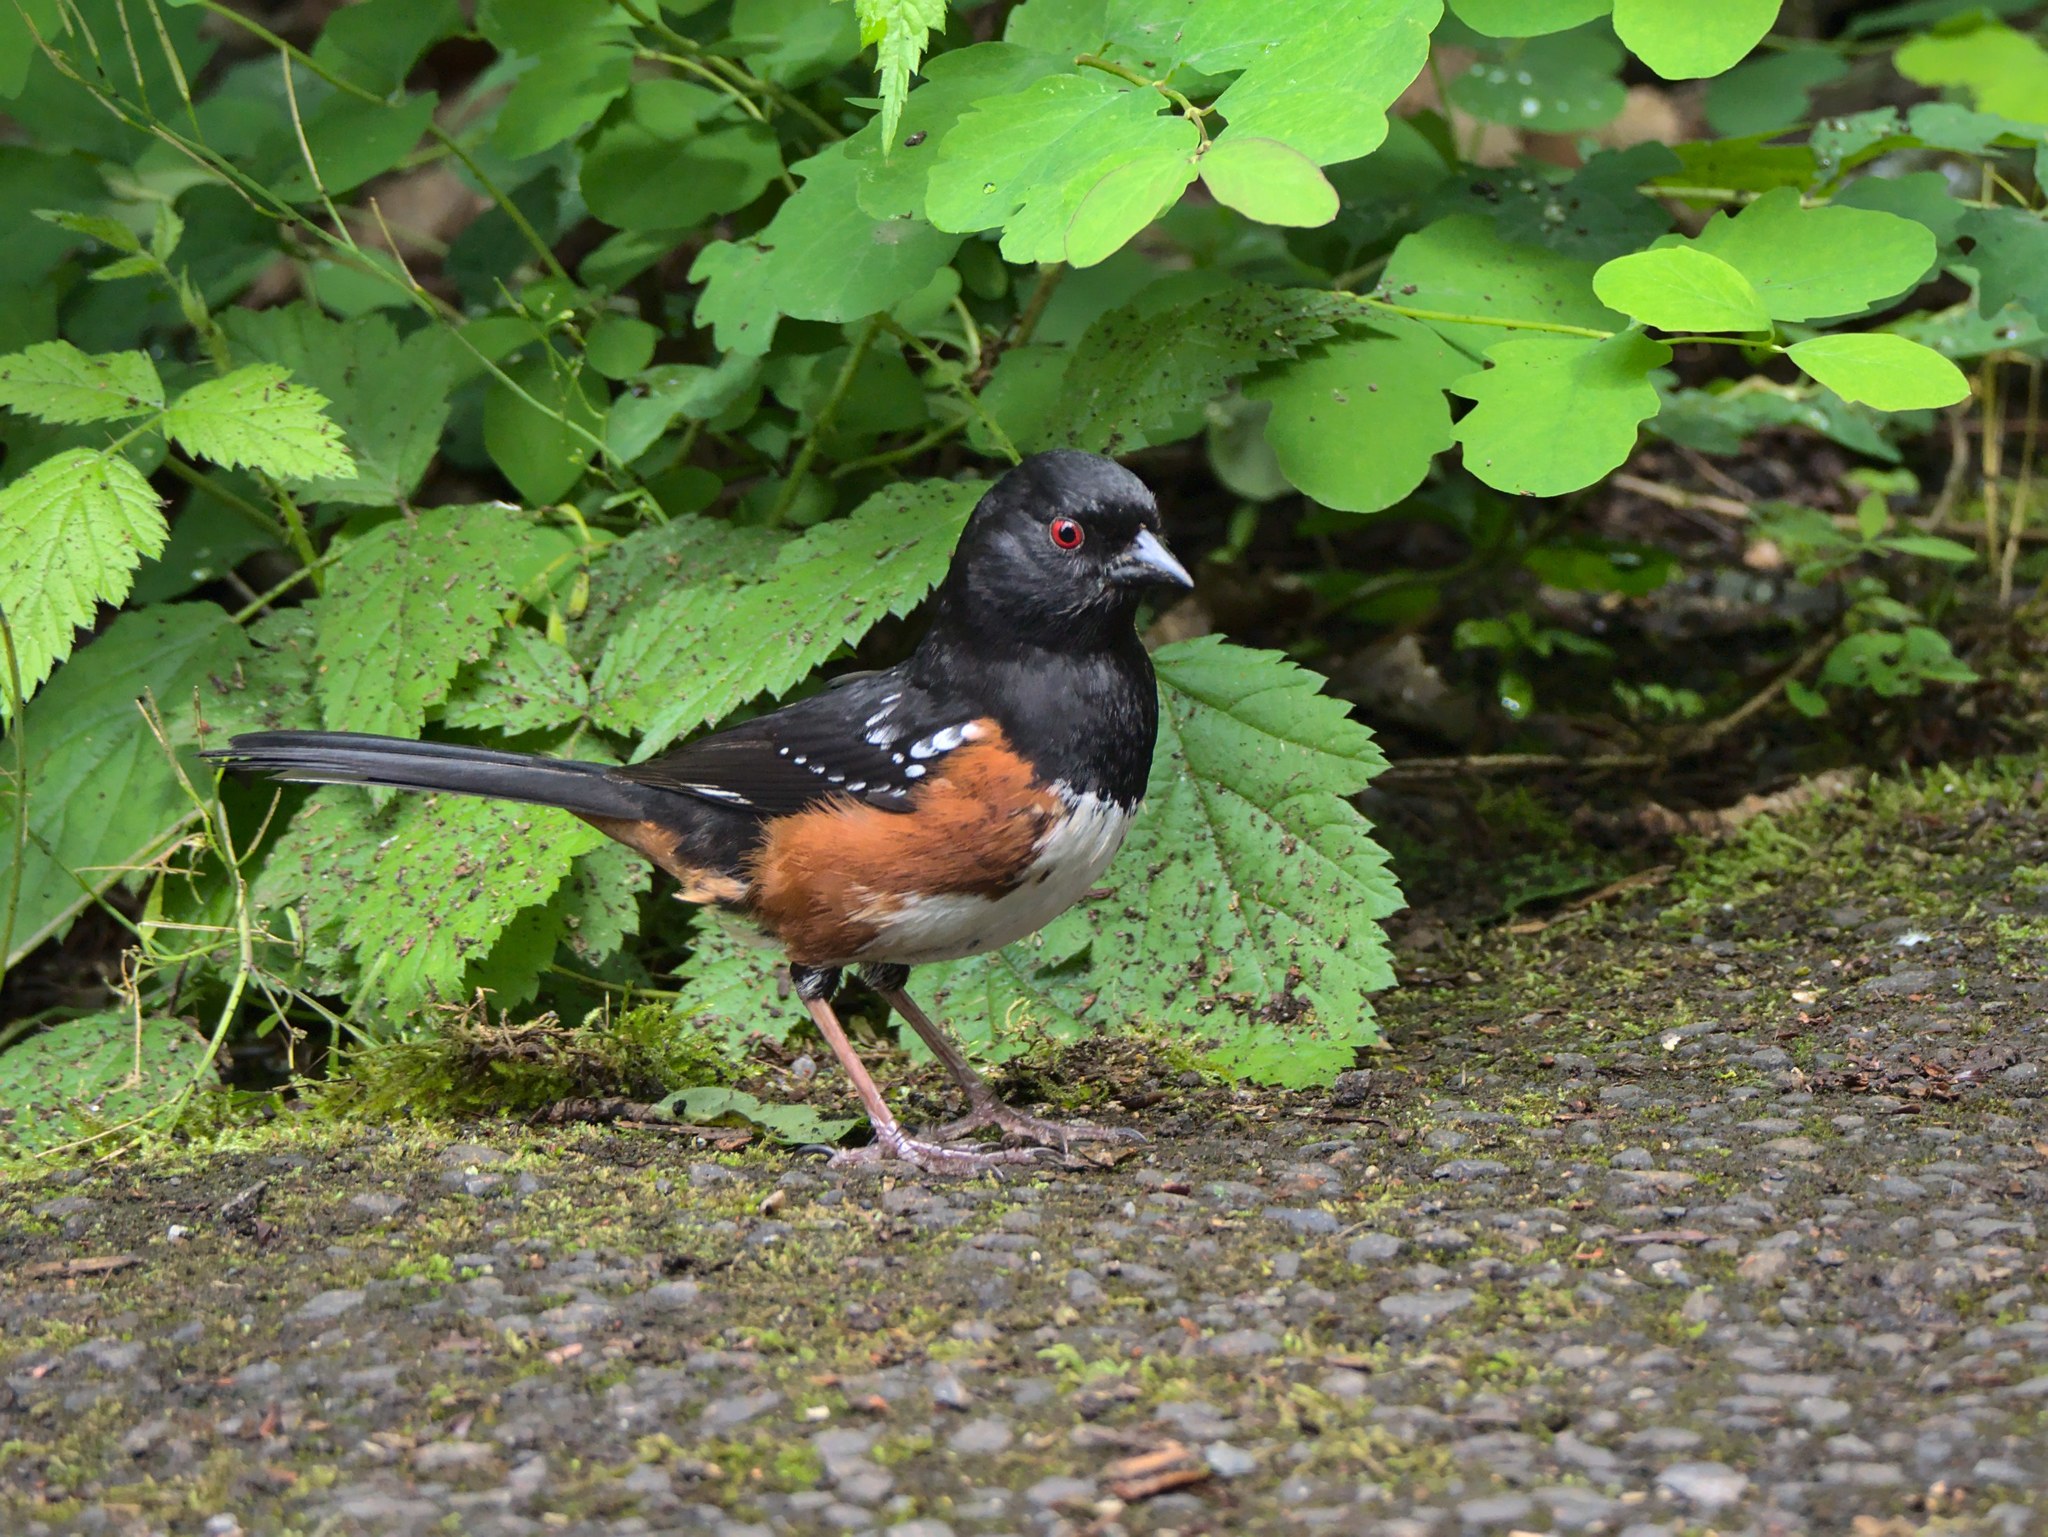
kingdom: Animalia
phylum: Chordata
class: Aves
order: Passeriformes
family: Passerellidae
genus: Pipilo
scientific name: Pipilo maculatus
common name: Spotted towhee
